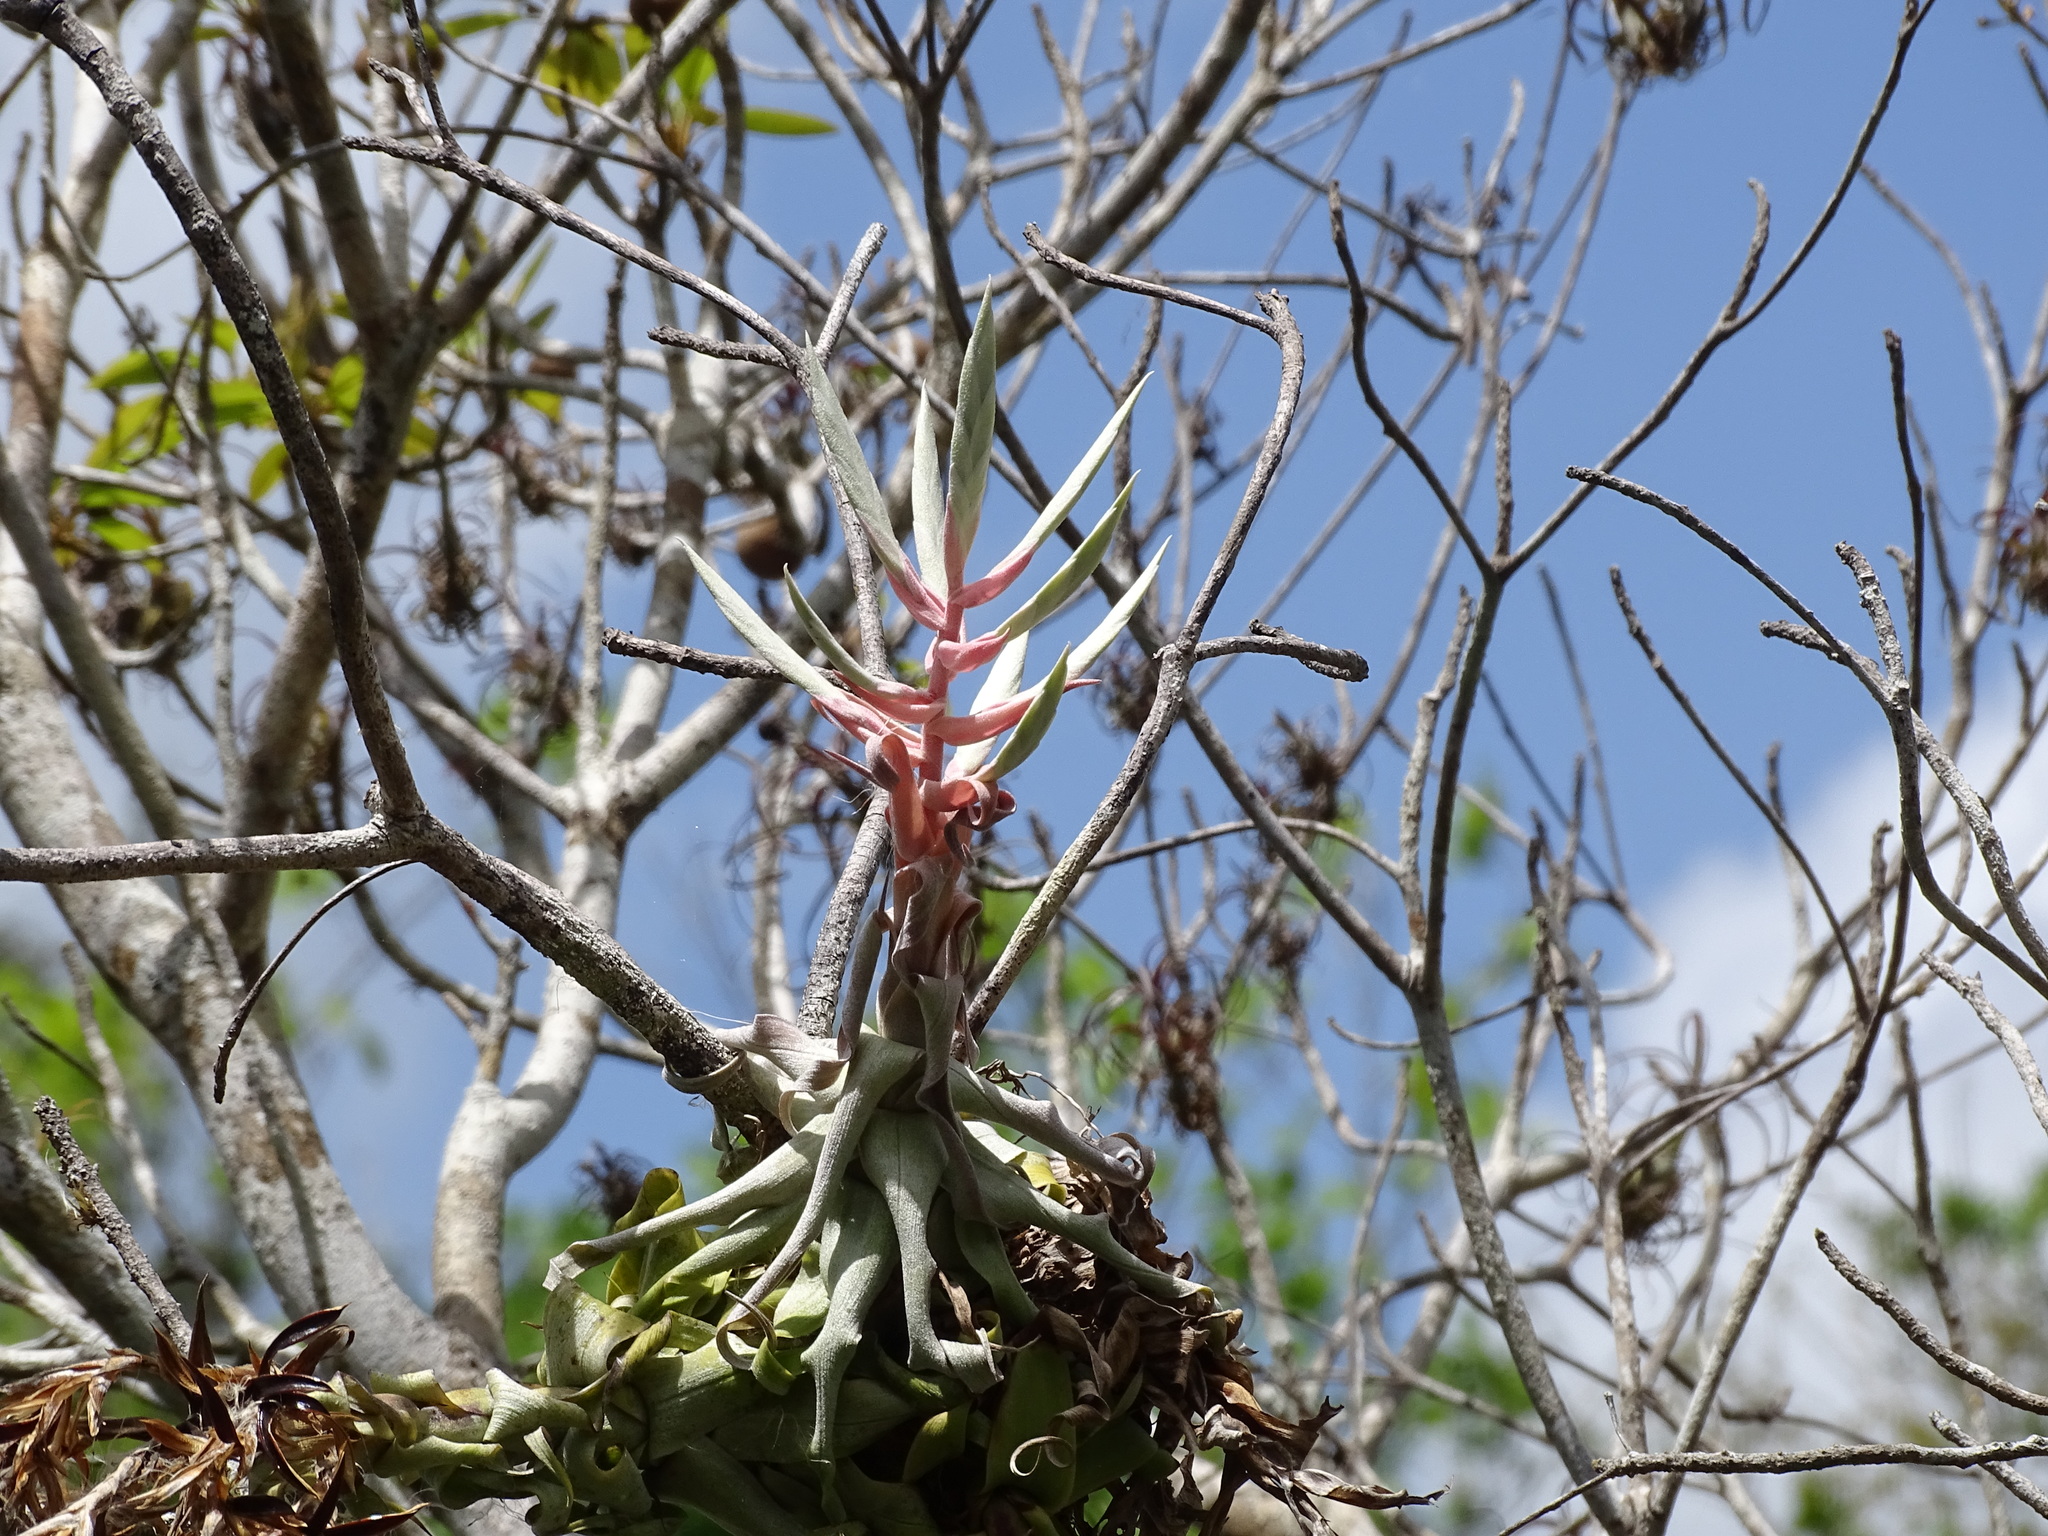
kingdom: Plantae
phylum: Tracheophyta
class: Liliopsida
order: Poales
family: Bromeliaceae
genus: Tillandsia
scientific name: Tillandsia streptophylla
